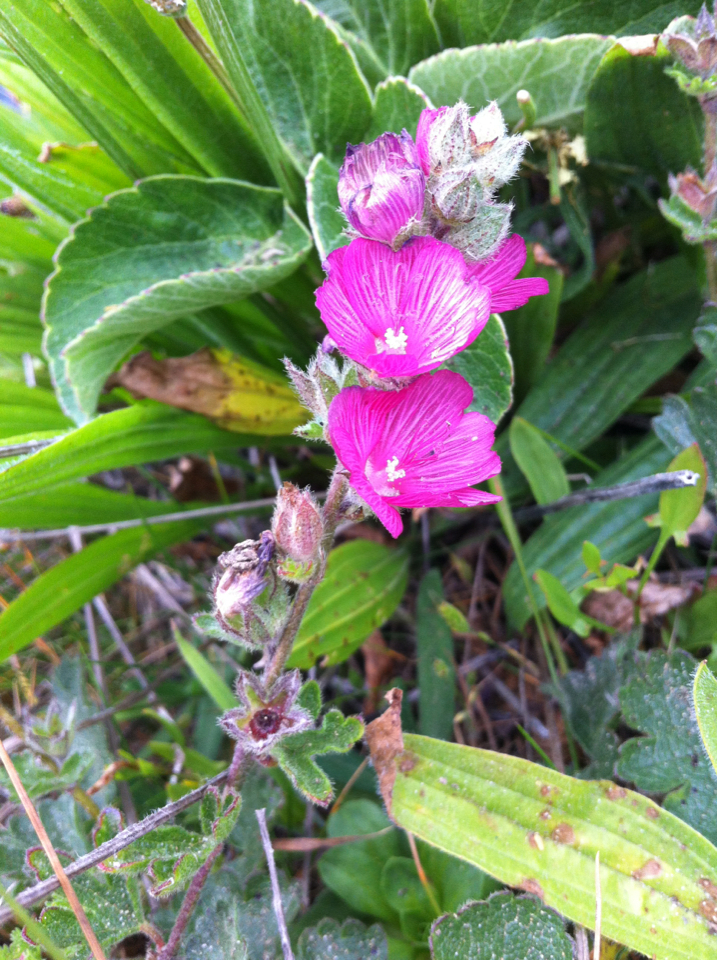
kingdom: Plantae
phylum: Tracheophyta
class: Magnoliopsida
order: Malvales
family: Malvaceae
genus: Sidalcea
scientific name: Sidalcea malviflora
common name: Greek mallow
